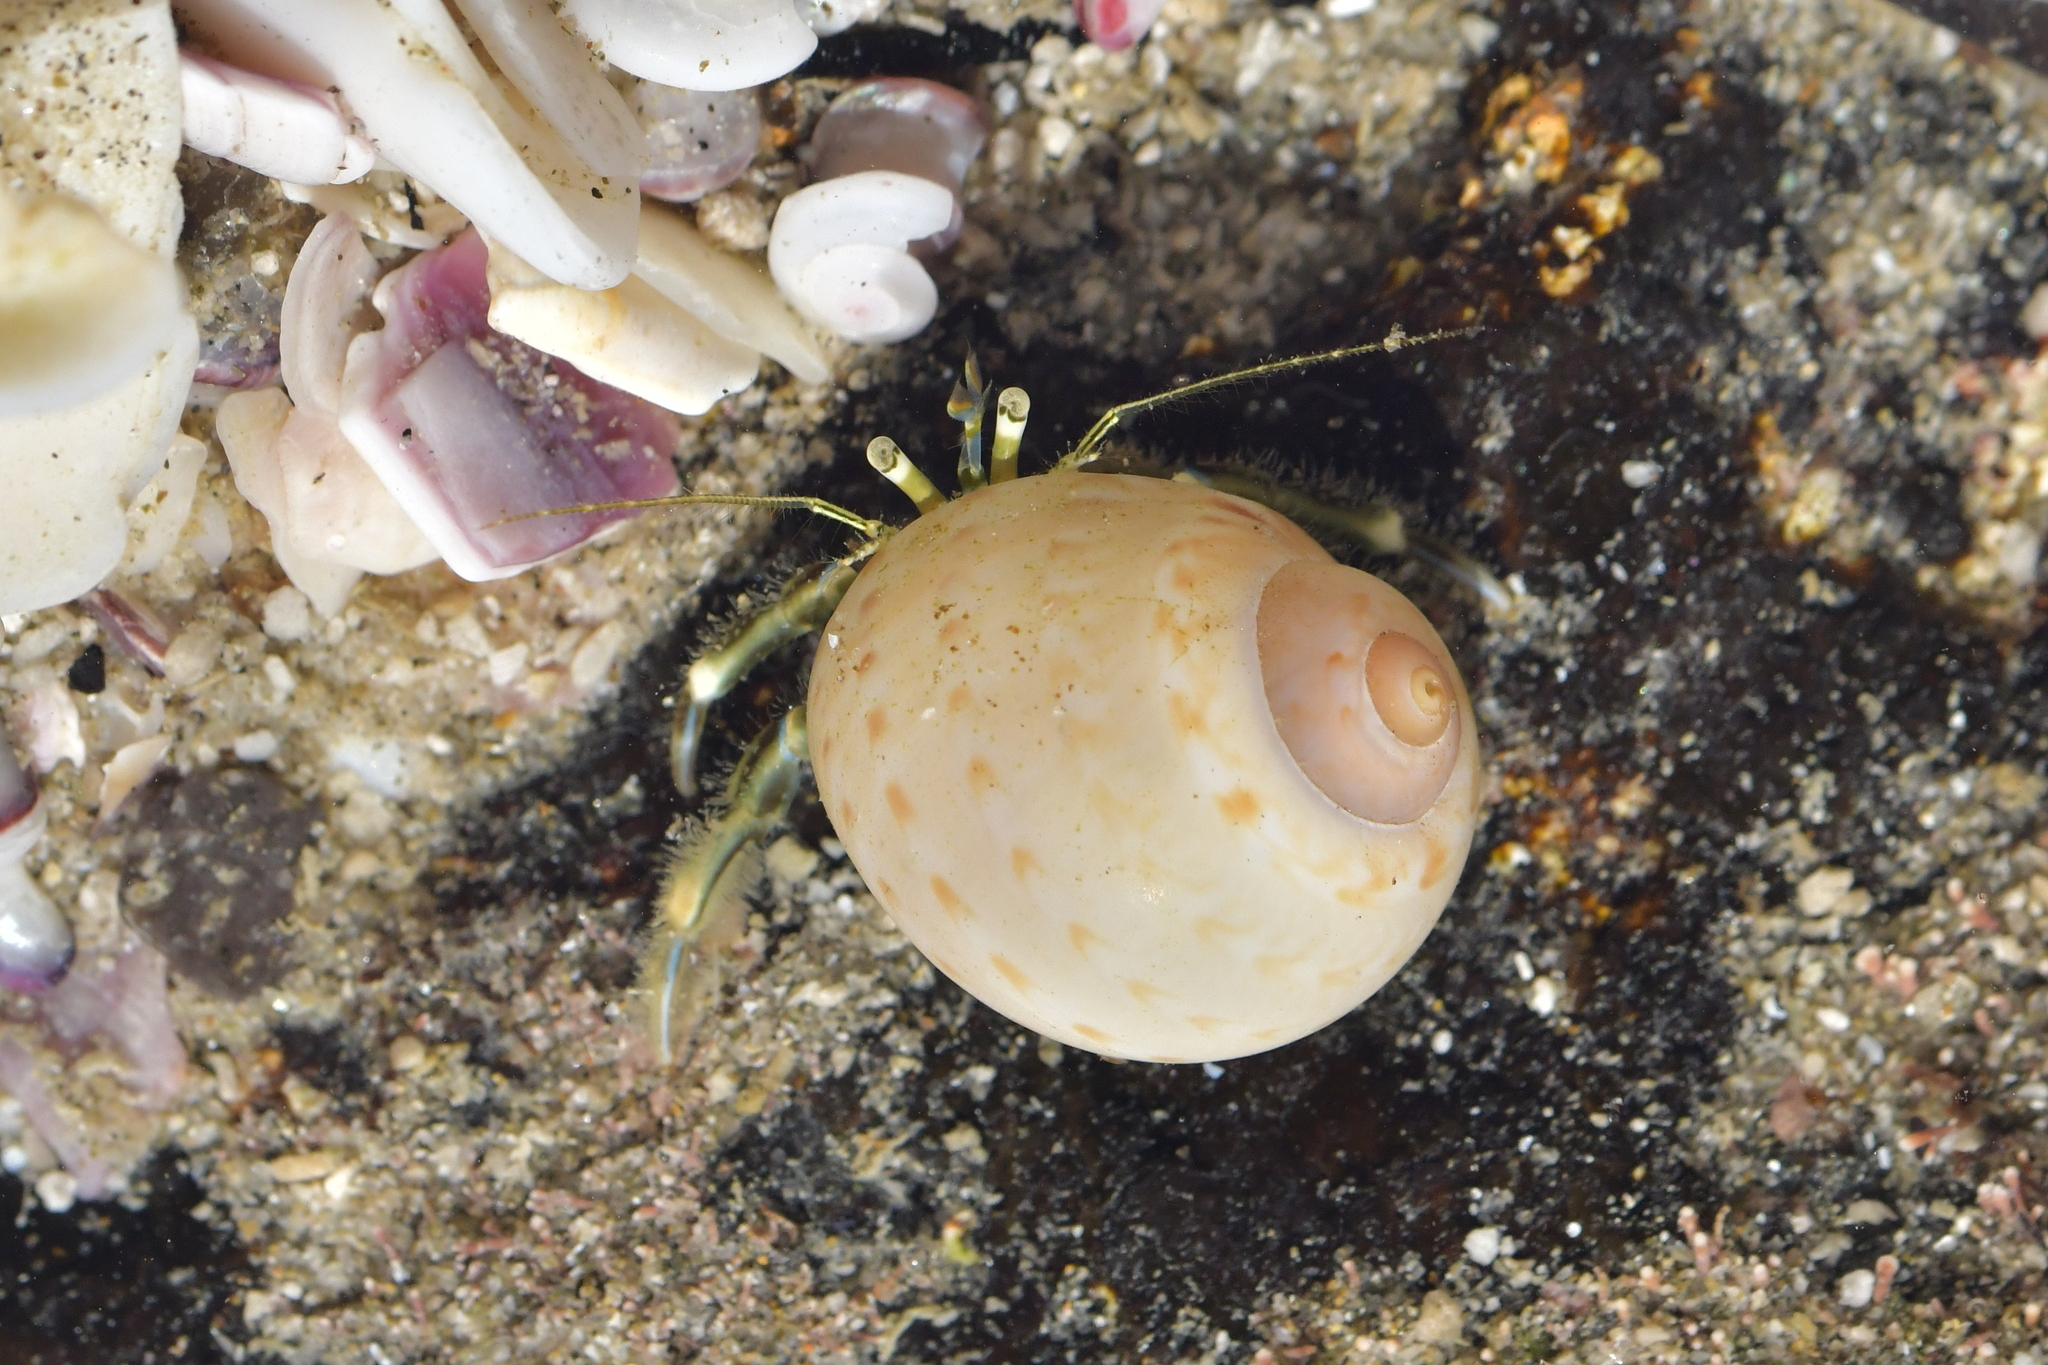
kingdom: Animalia
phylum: Arthropoda
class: Malacostraca
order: Decapoda
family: Paguridae
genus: Pagurus
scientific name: Pagurus novizealandiae
